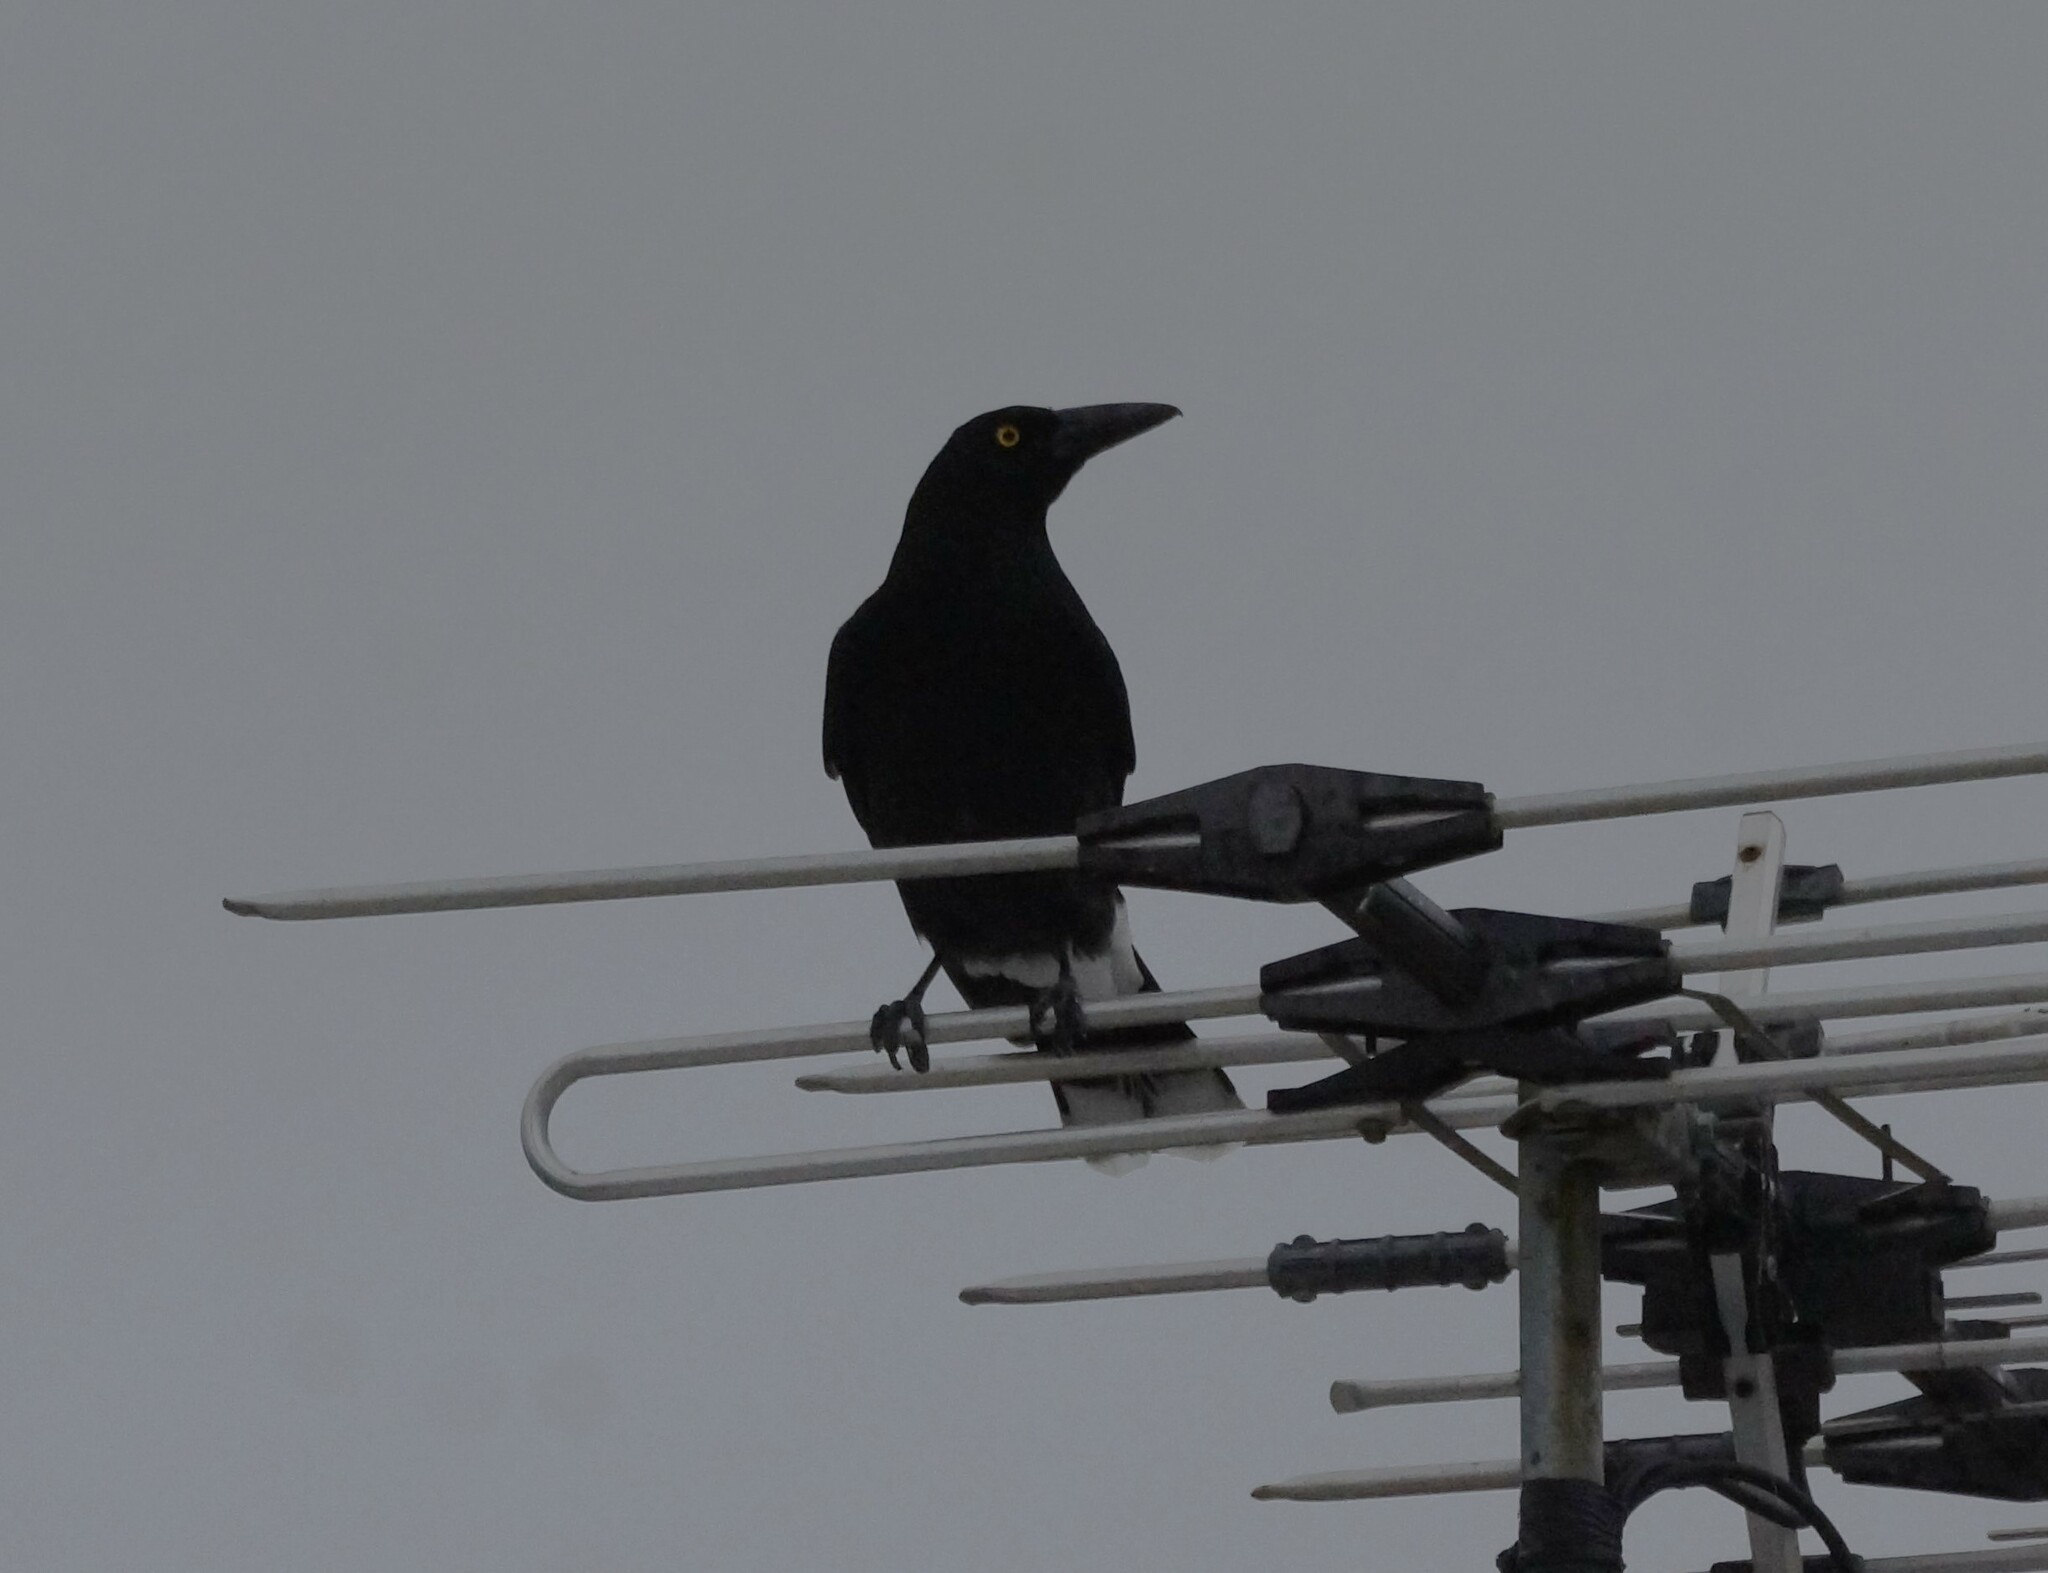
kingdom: Animalia
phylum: Chordata
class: Aves
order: Passeriformes
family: Cracticidae
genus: Strepera
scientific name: Strepera graculina
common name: Pied currawong
